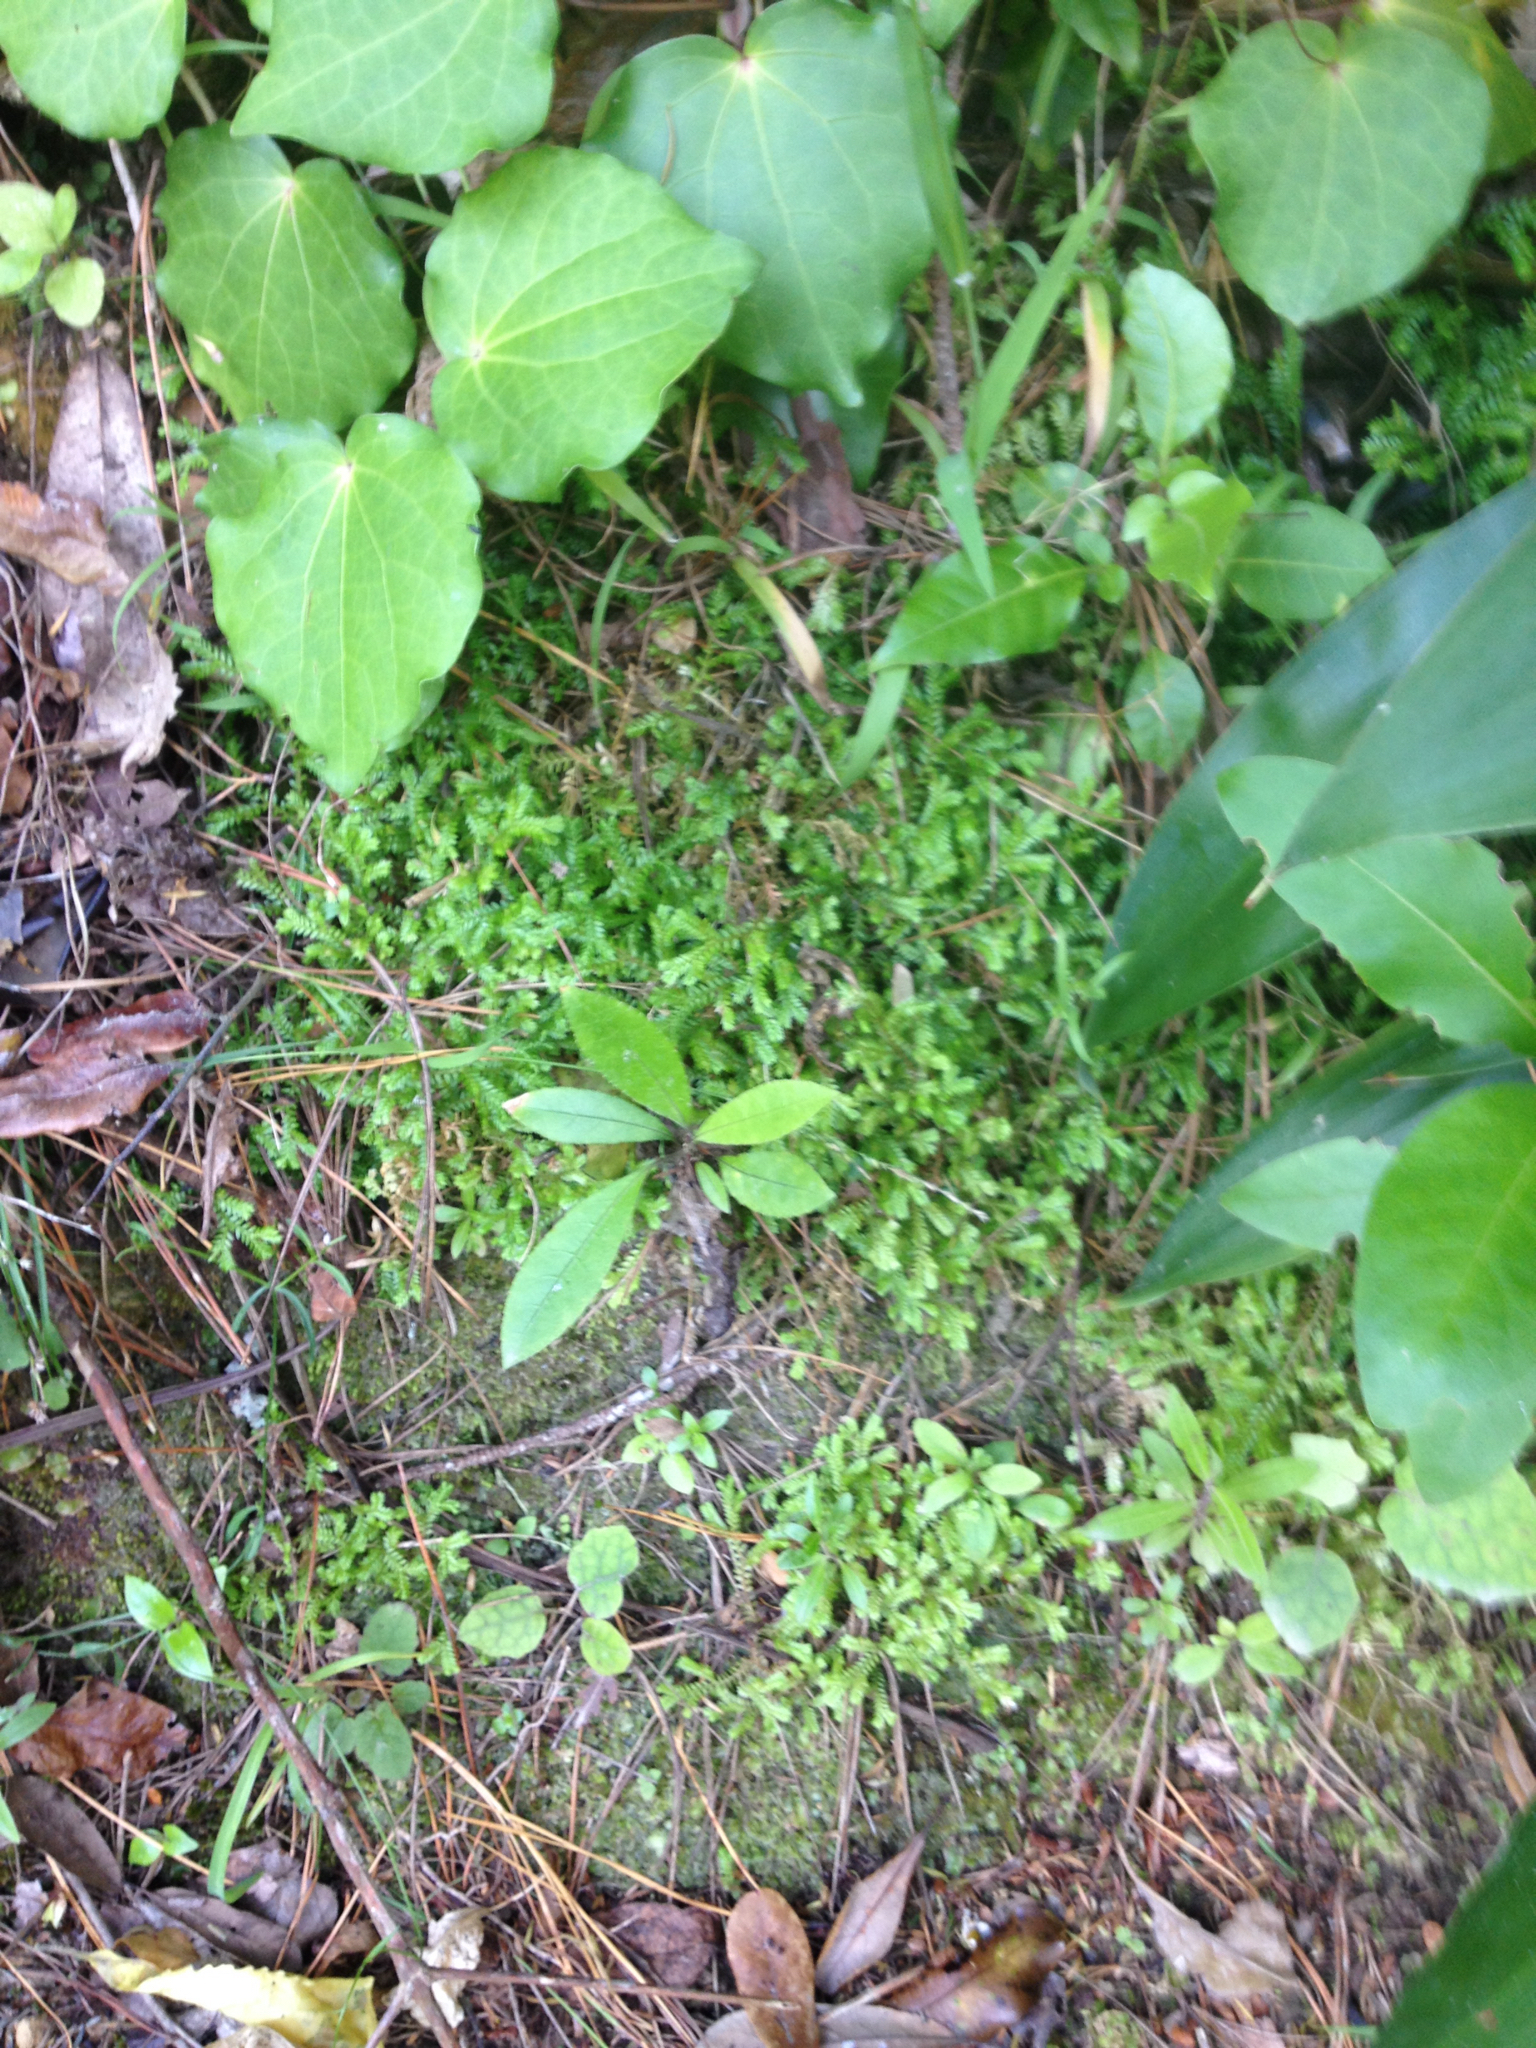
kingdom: Plantae
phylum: Tracheophyta
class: Lycopodiopsida
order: Selaginellales
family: Selaginellaceae
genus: Selaginella
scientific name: Selaginella kraussiana
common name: Krauss' spikemoss
